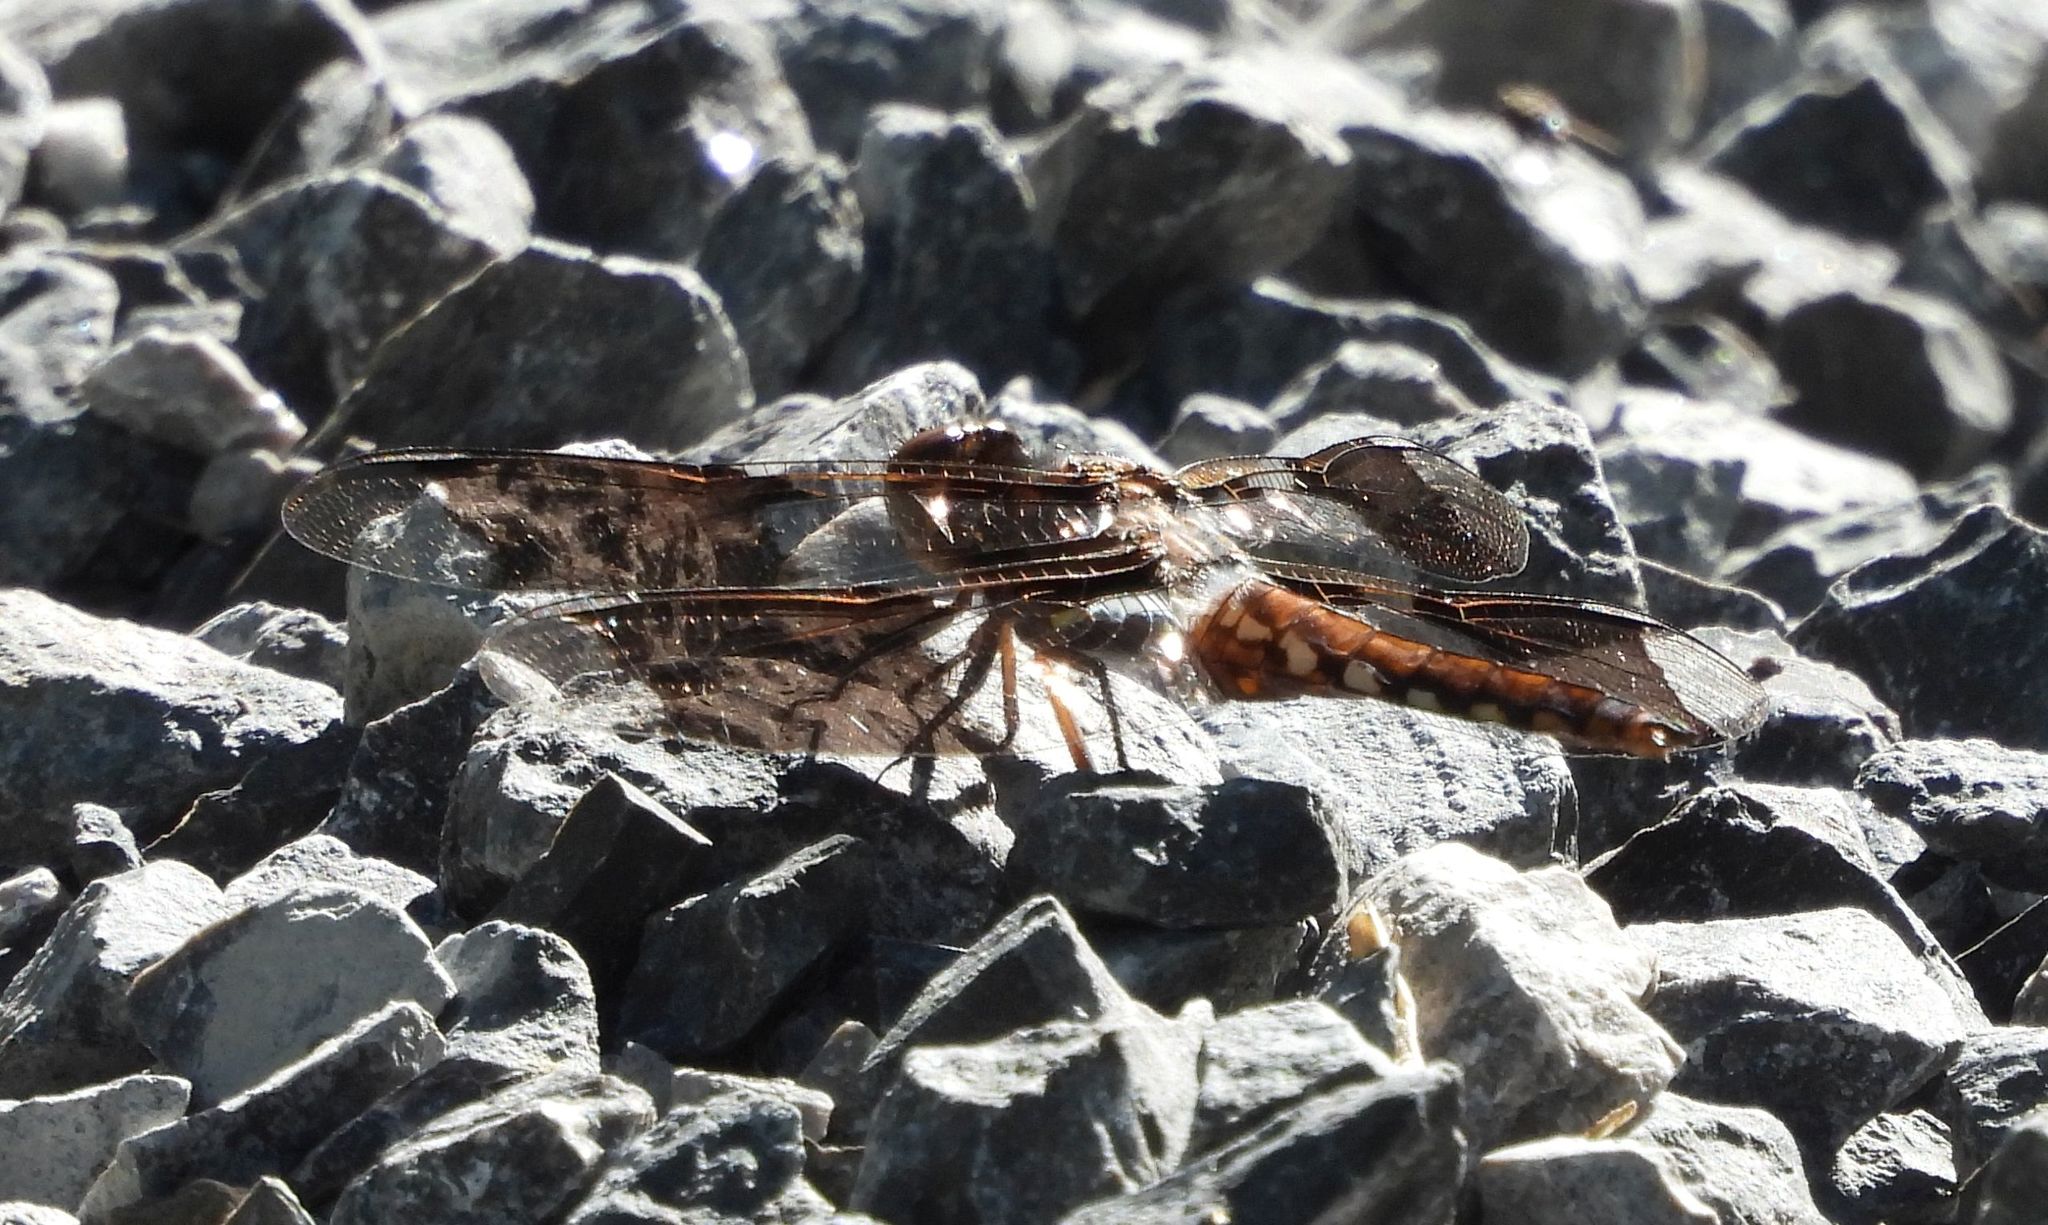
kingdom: Animalia
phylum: Arthropoda
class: Insecta
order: Odonata
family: Libellulidae
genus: Plathemis
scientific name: Plathemis lydia
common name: Common whitetail
